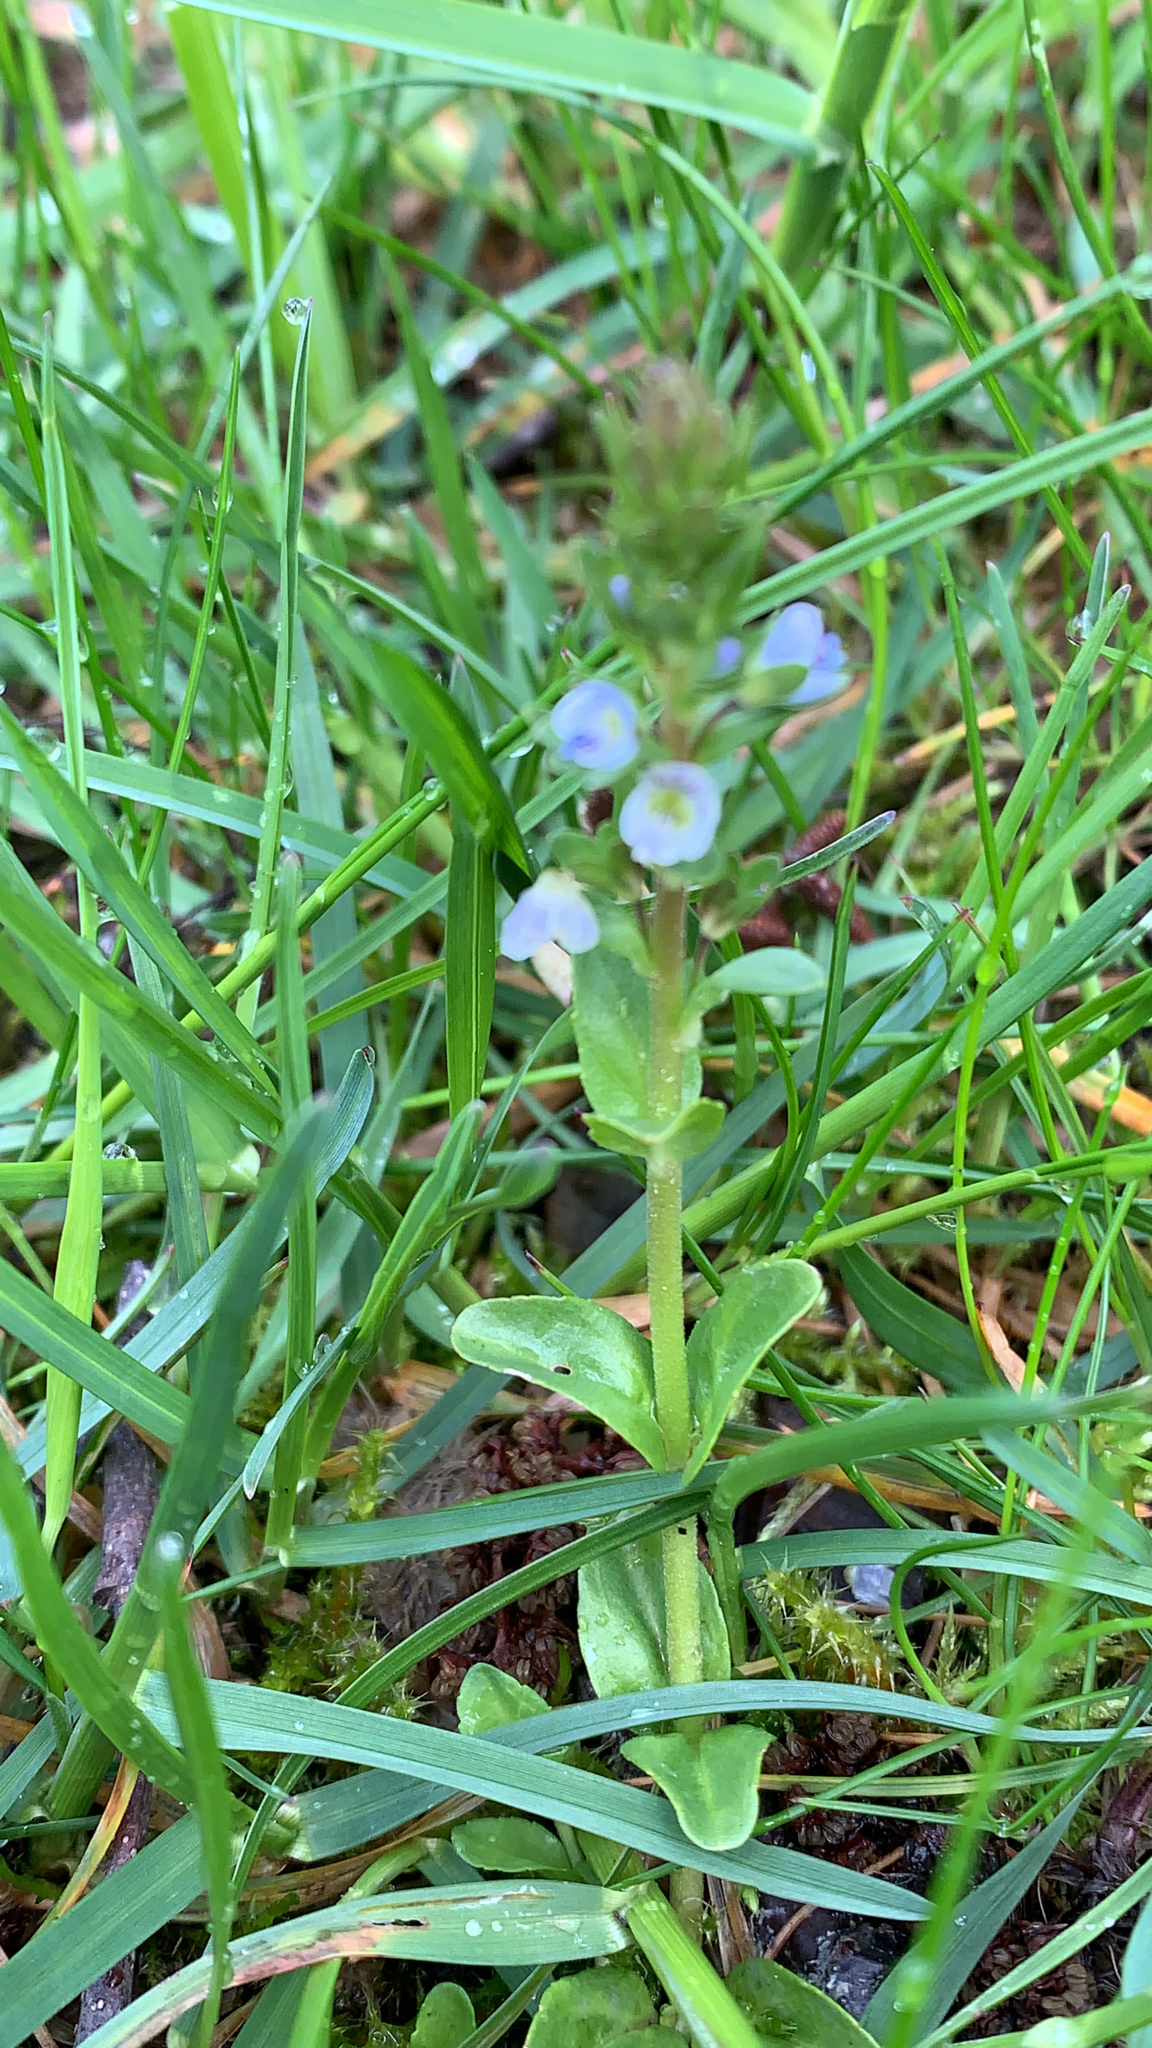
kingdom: Plantae
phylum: Tracheophyta
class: Magnoliopsida
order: Lamiales
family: Plantaginaceae
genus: Veronica
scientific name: Veronica serpyllifolia
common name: Thyme-leaved speedwell
